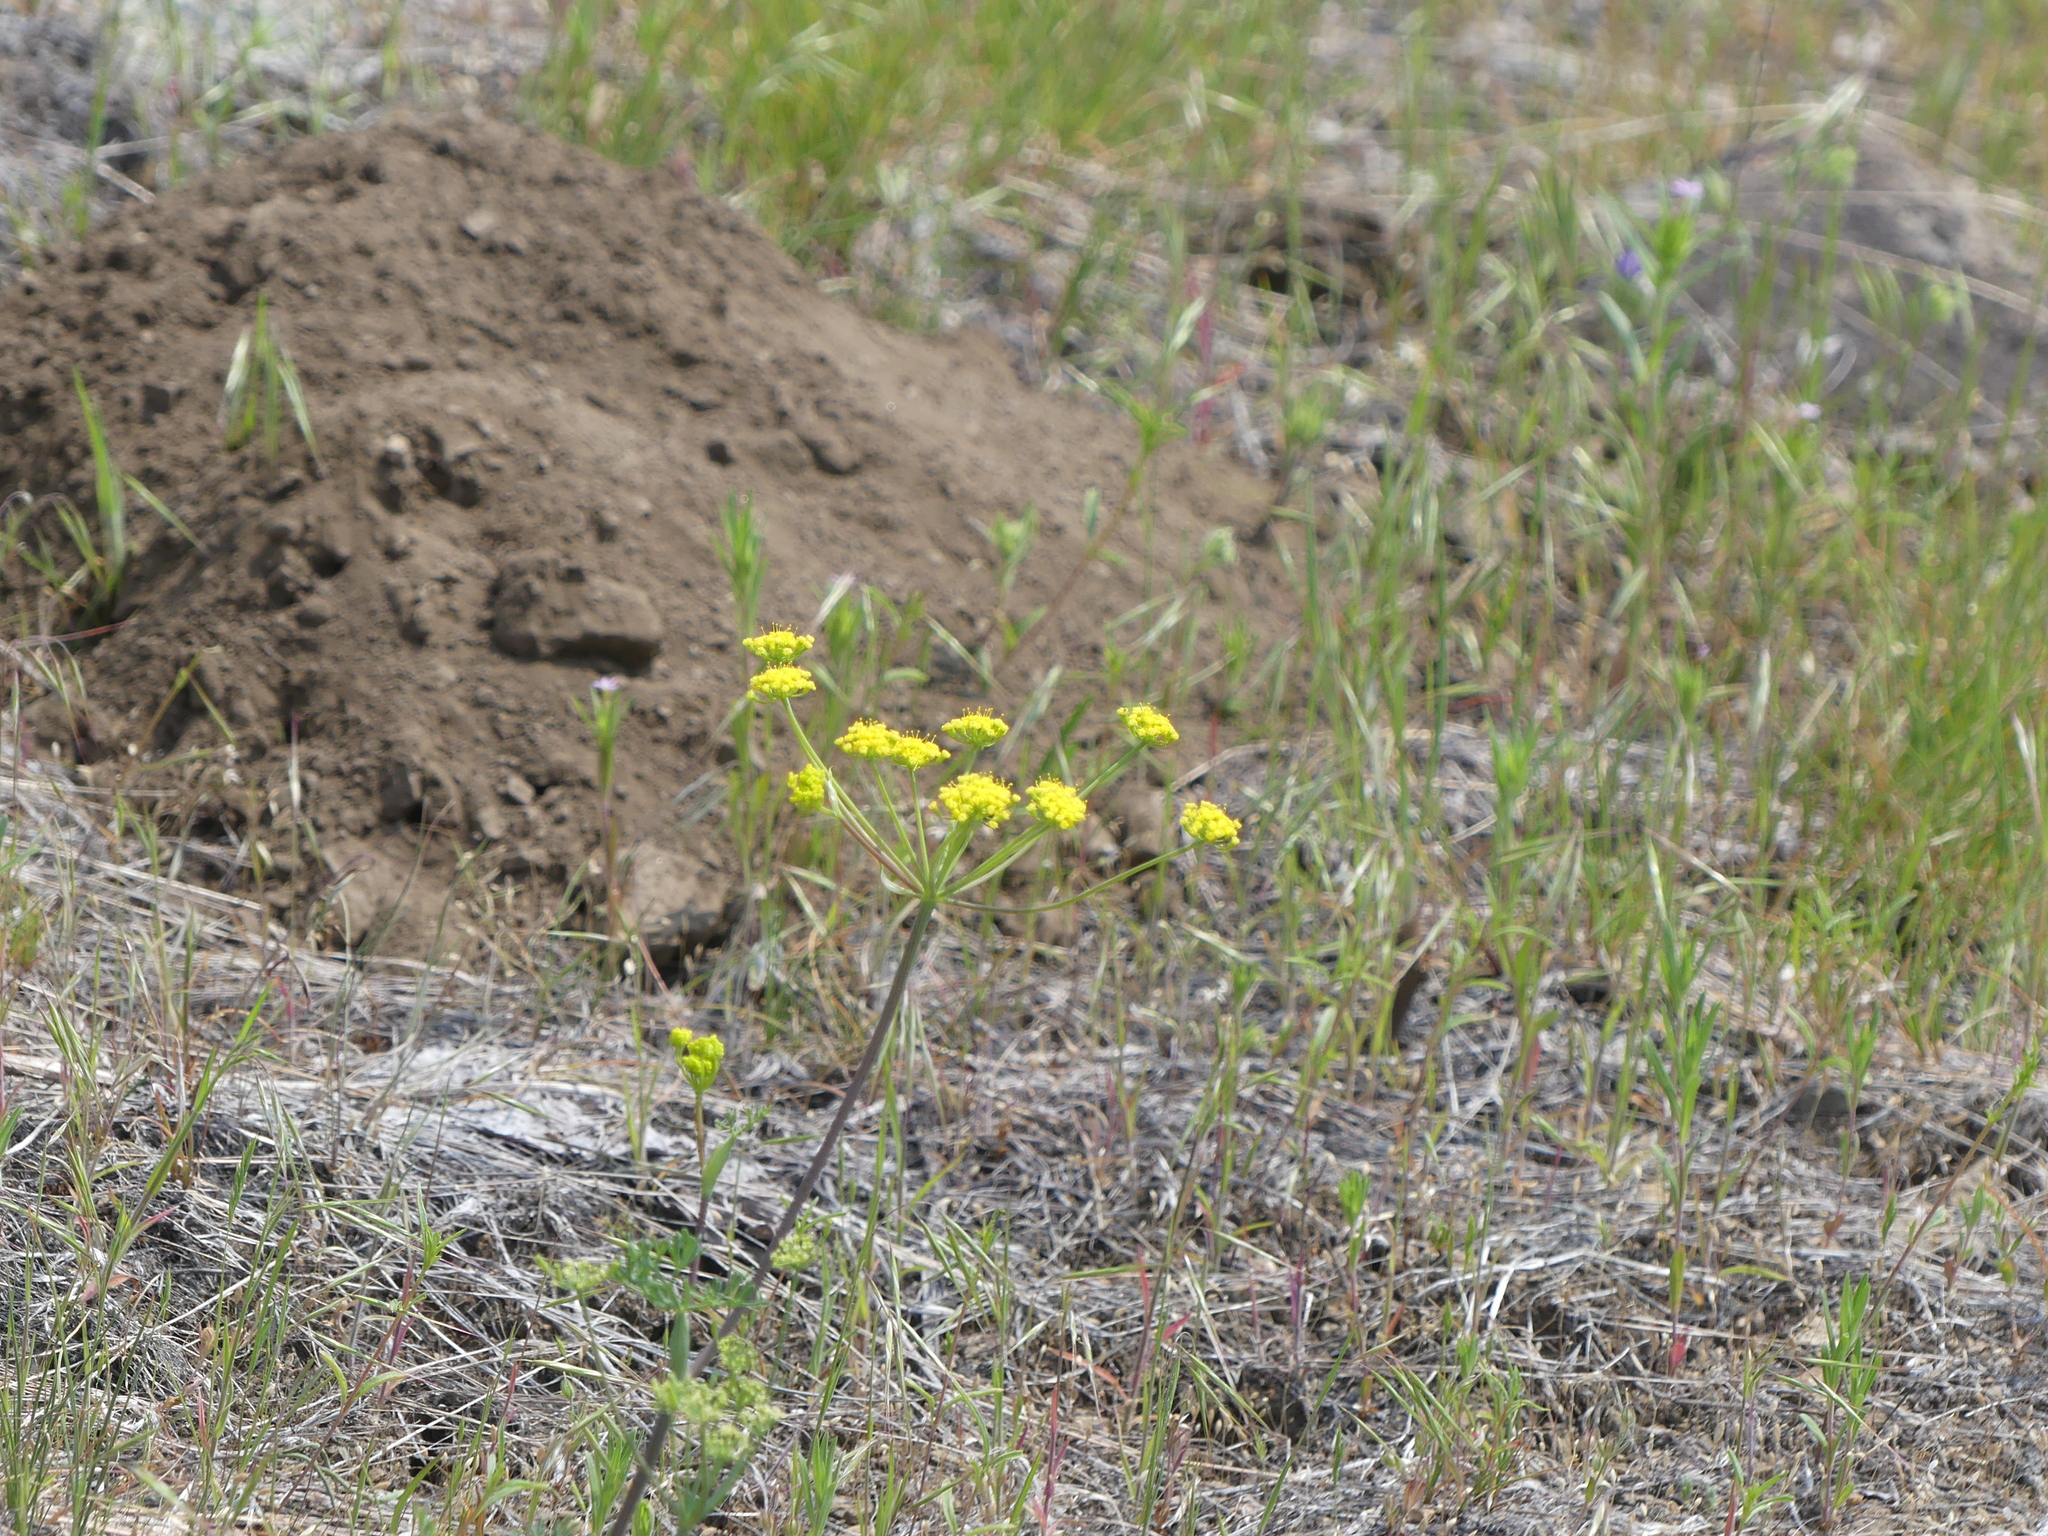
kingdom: Plantae
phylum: Tracheophyta
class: Magnoliopsida
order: Apiales
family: Apiaceae
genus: Lomatium
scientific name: Lomatium ambiguum
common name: Lacy lomatium
